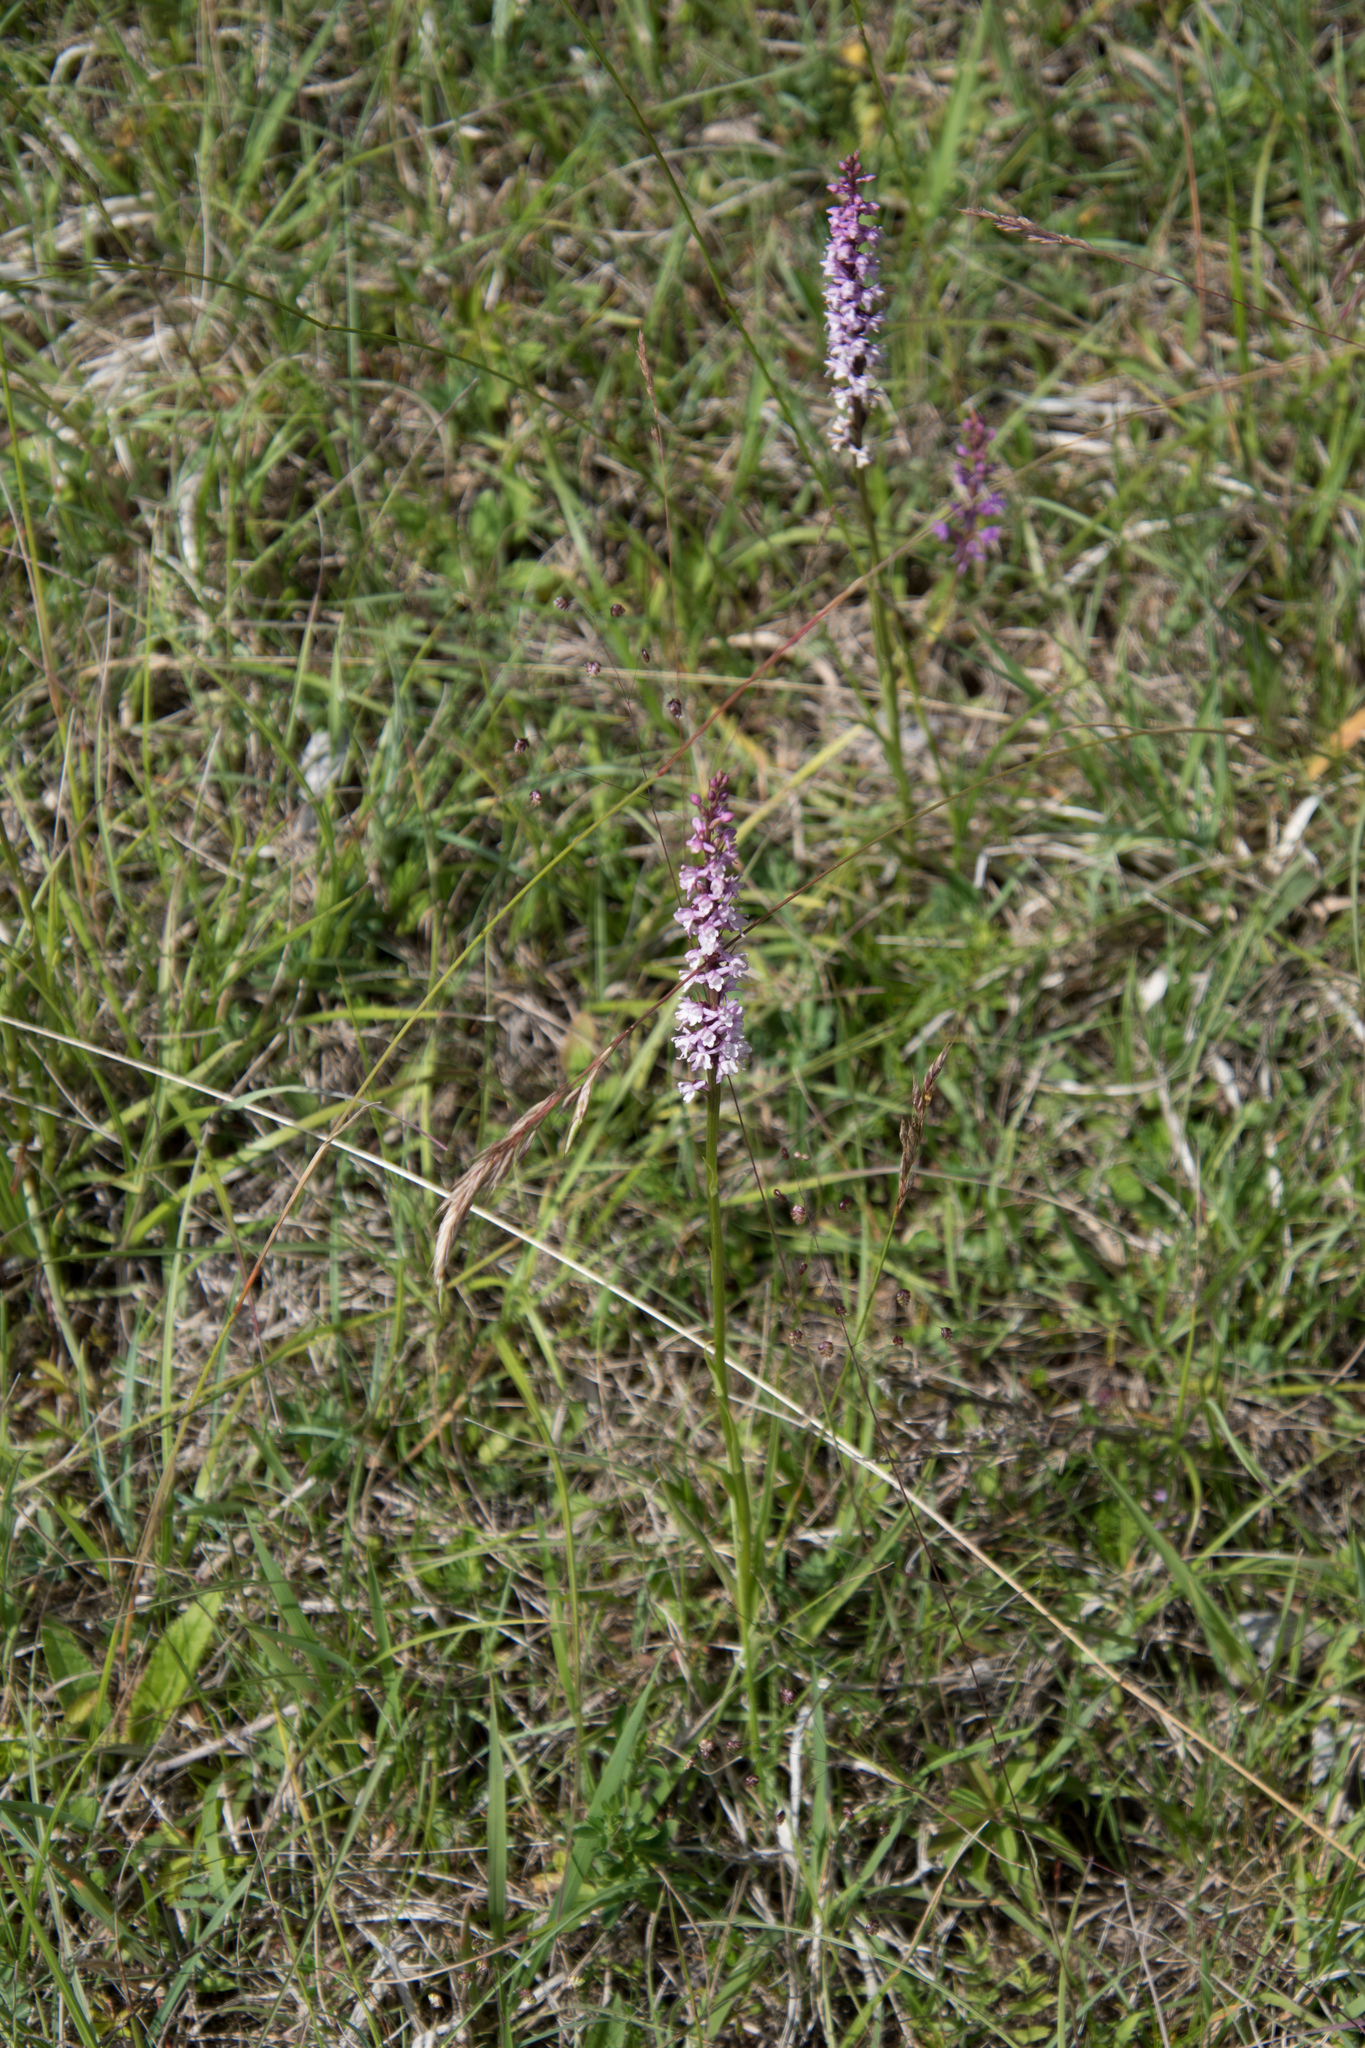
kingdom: Plantae
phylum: Tracheophyta
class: Liliopsida
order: Asparagales
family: Orchidaceae
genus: Gymnadenia
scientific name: Gymnadenia odoratissima
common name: Scented gymnadenia
